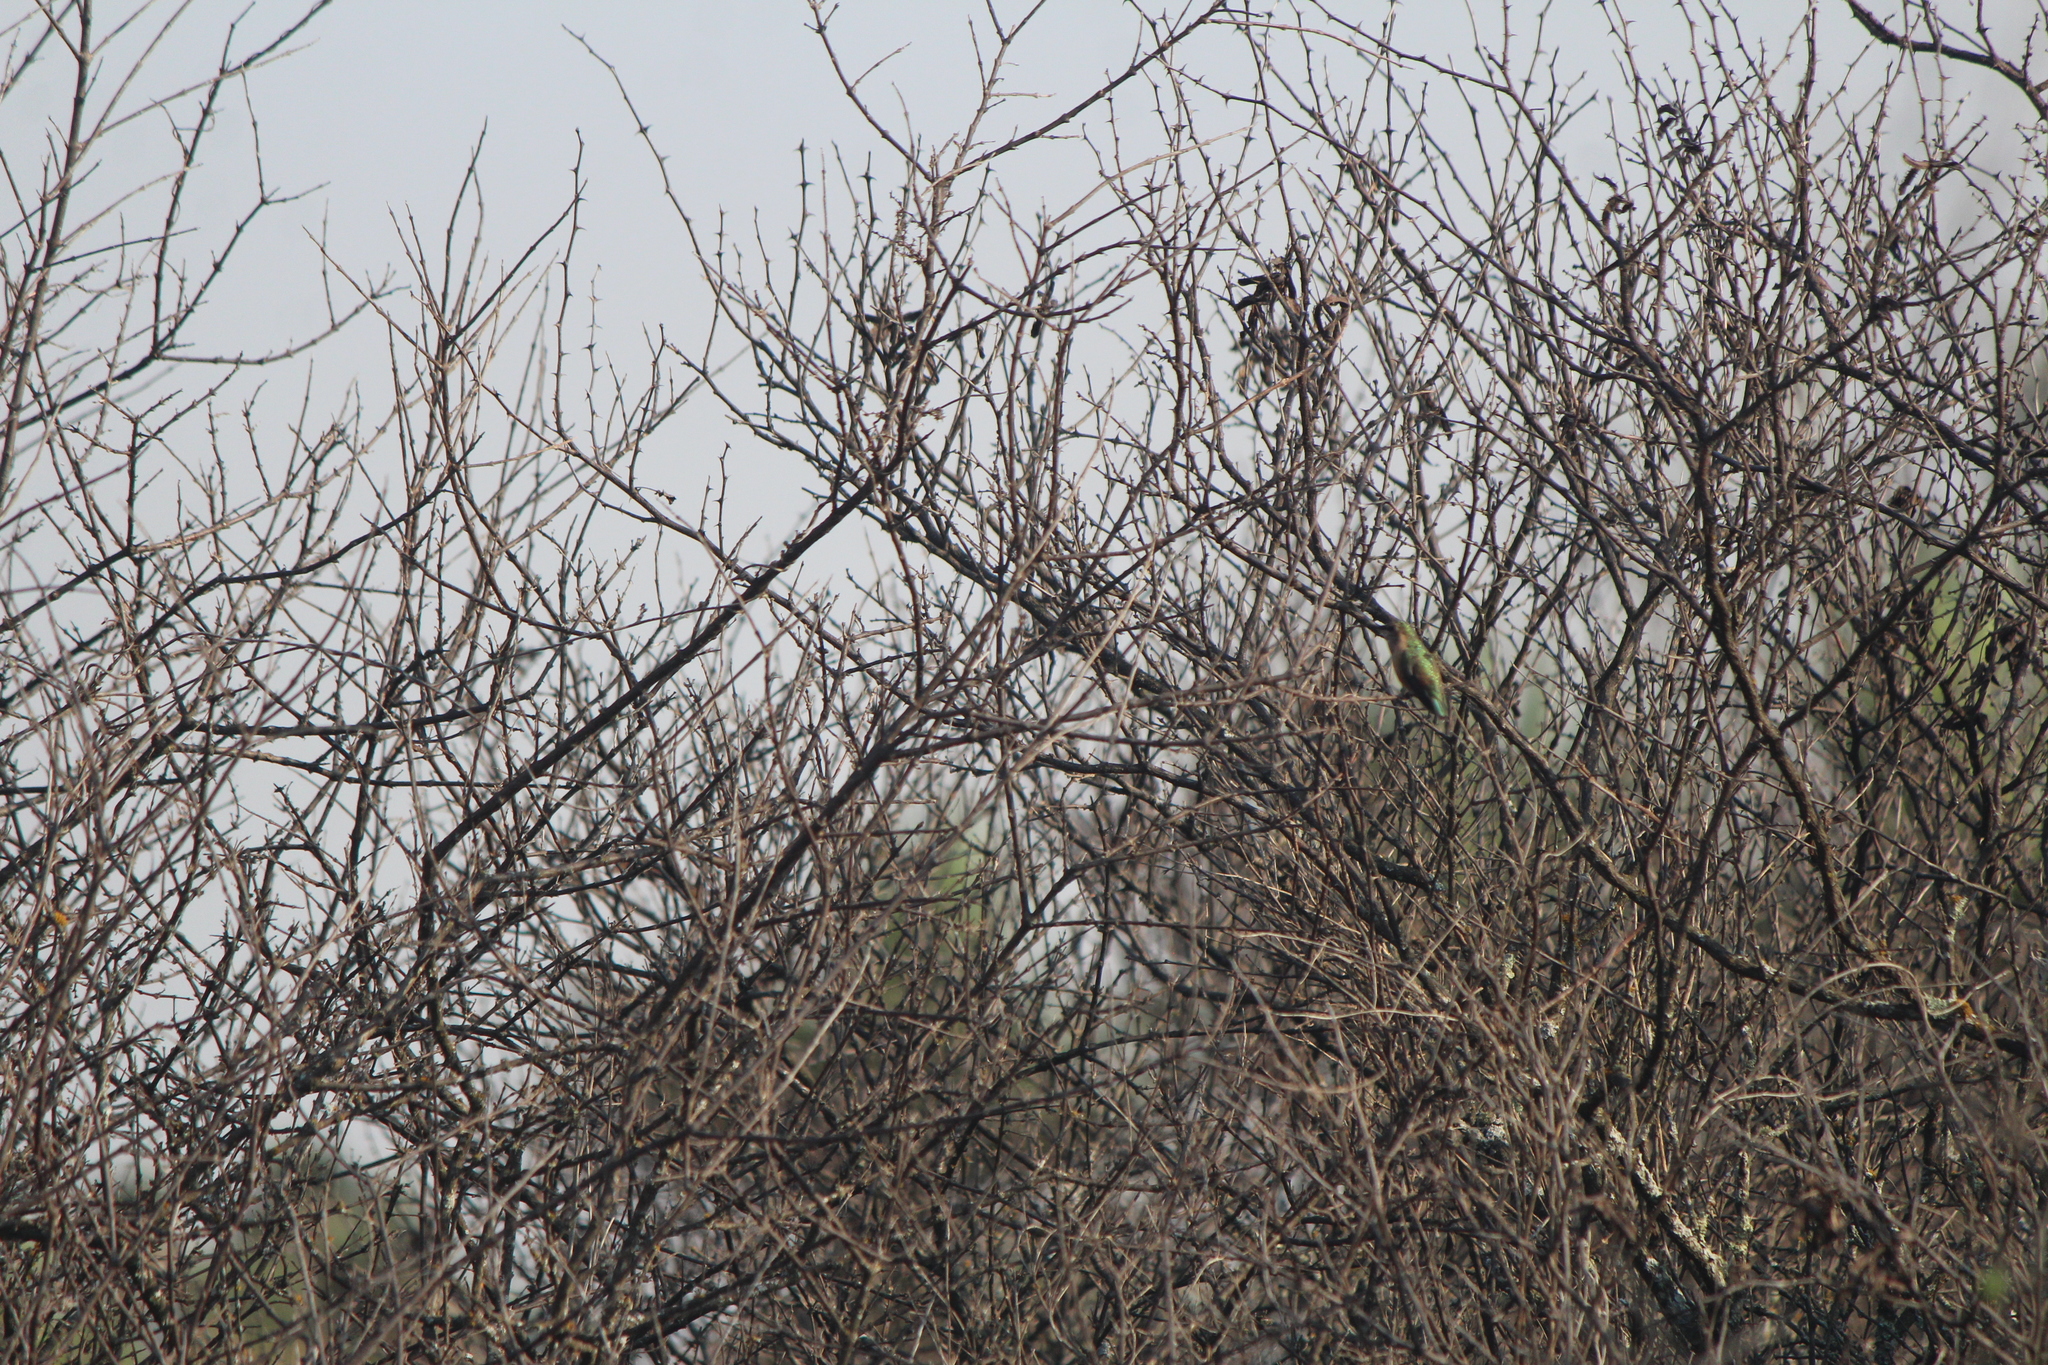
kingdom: Animalia
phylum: Chordata
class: Aves
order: Apodiformes
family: Trochilidae
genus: Calothorax
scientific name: Calothorax lucifer
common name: Lucifer sheartail
